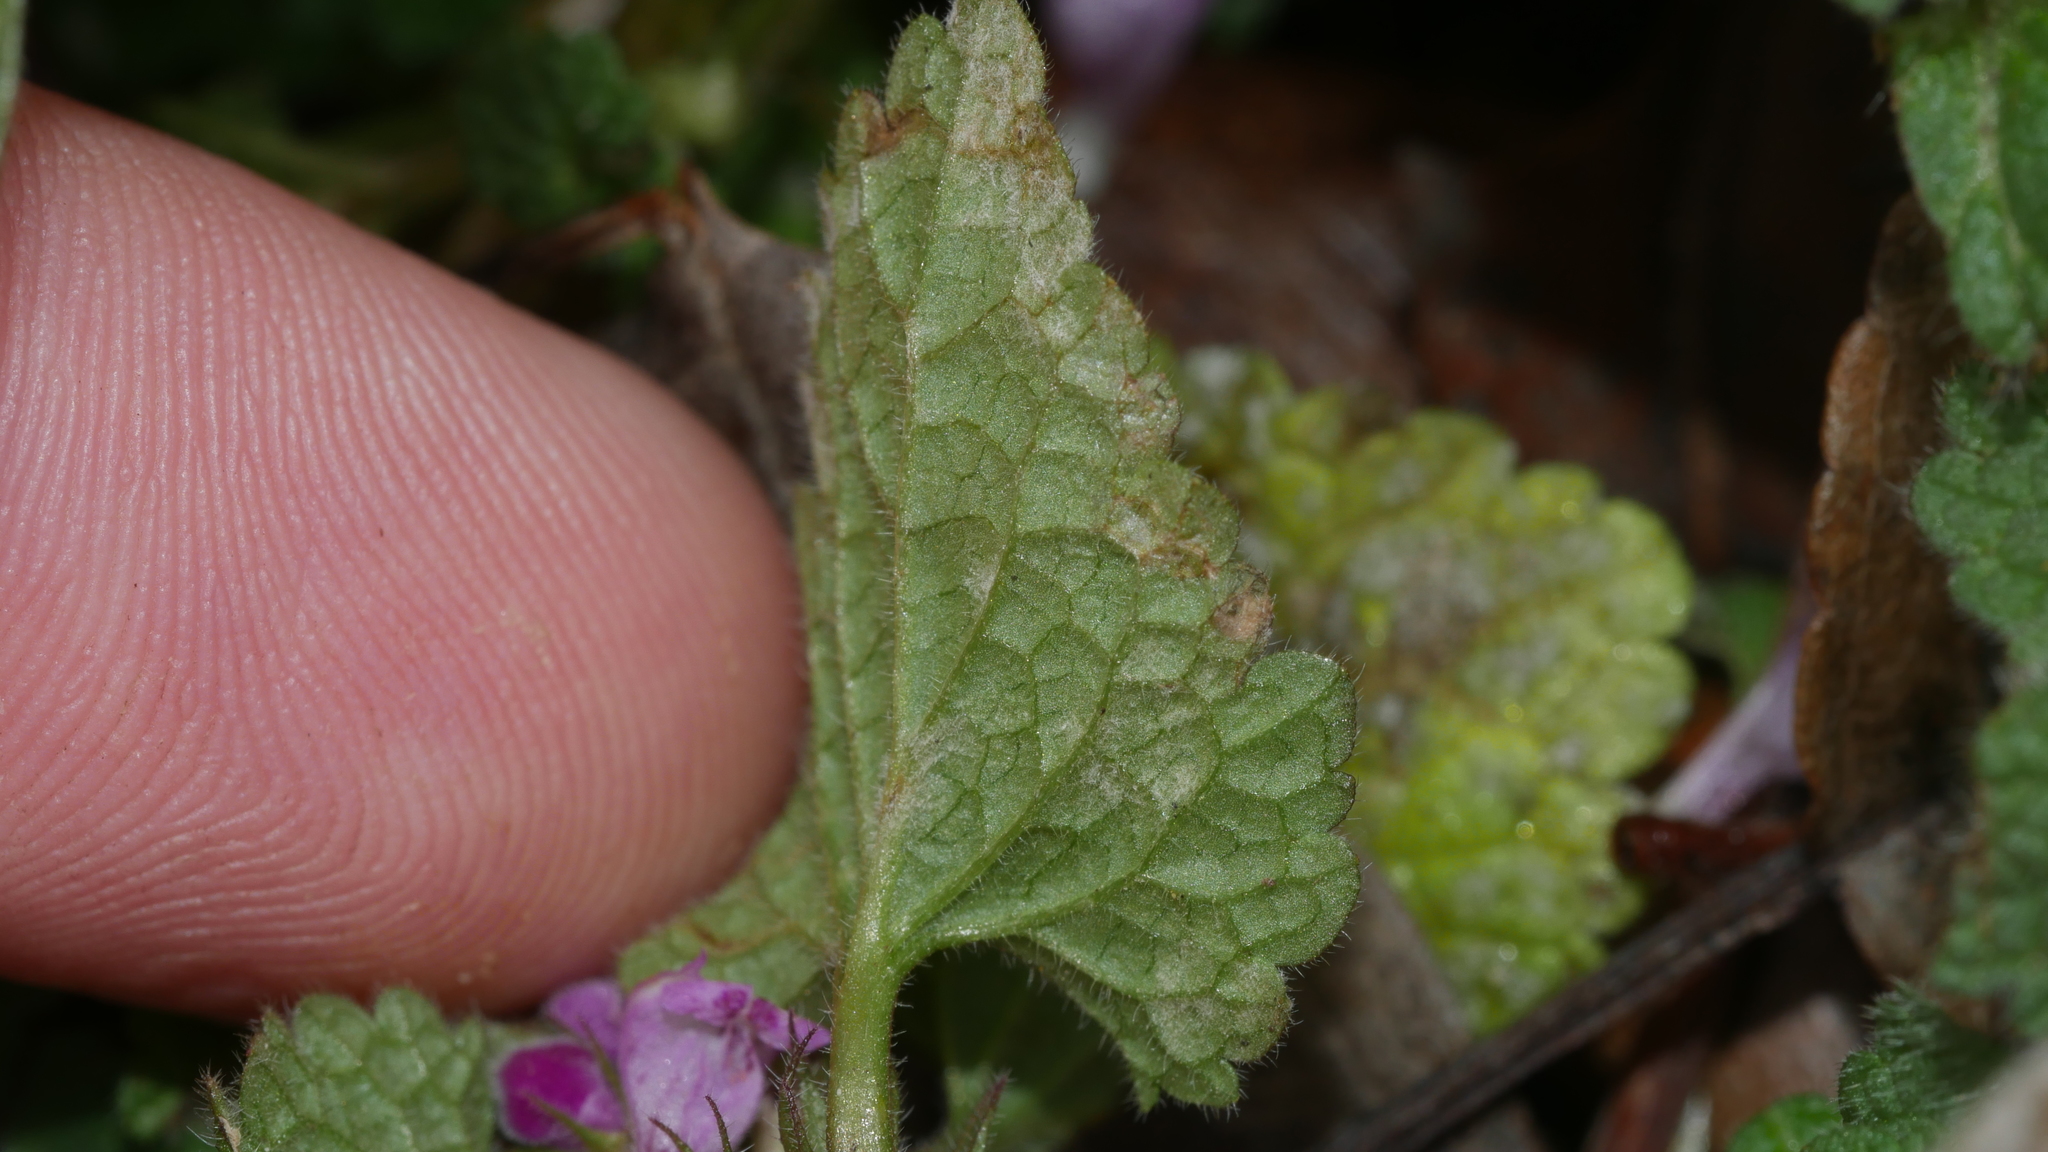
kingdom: Fungi
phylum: Ascomycota
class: Leotiomycetes
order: Helotiales
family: Erysiphaceae
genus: Neoerysiphe
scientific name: Neoerysiphe galeopsidis
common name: Mint mildew
